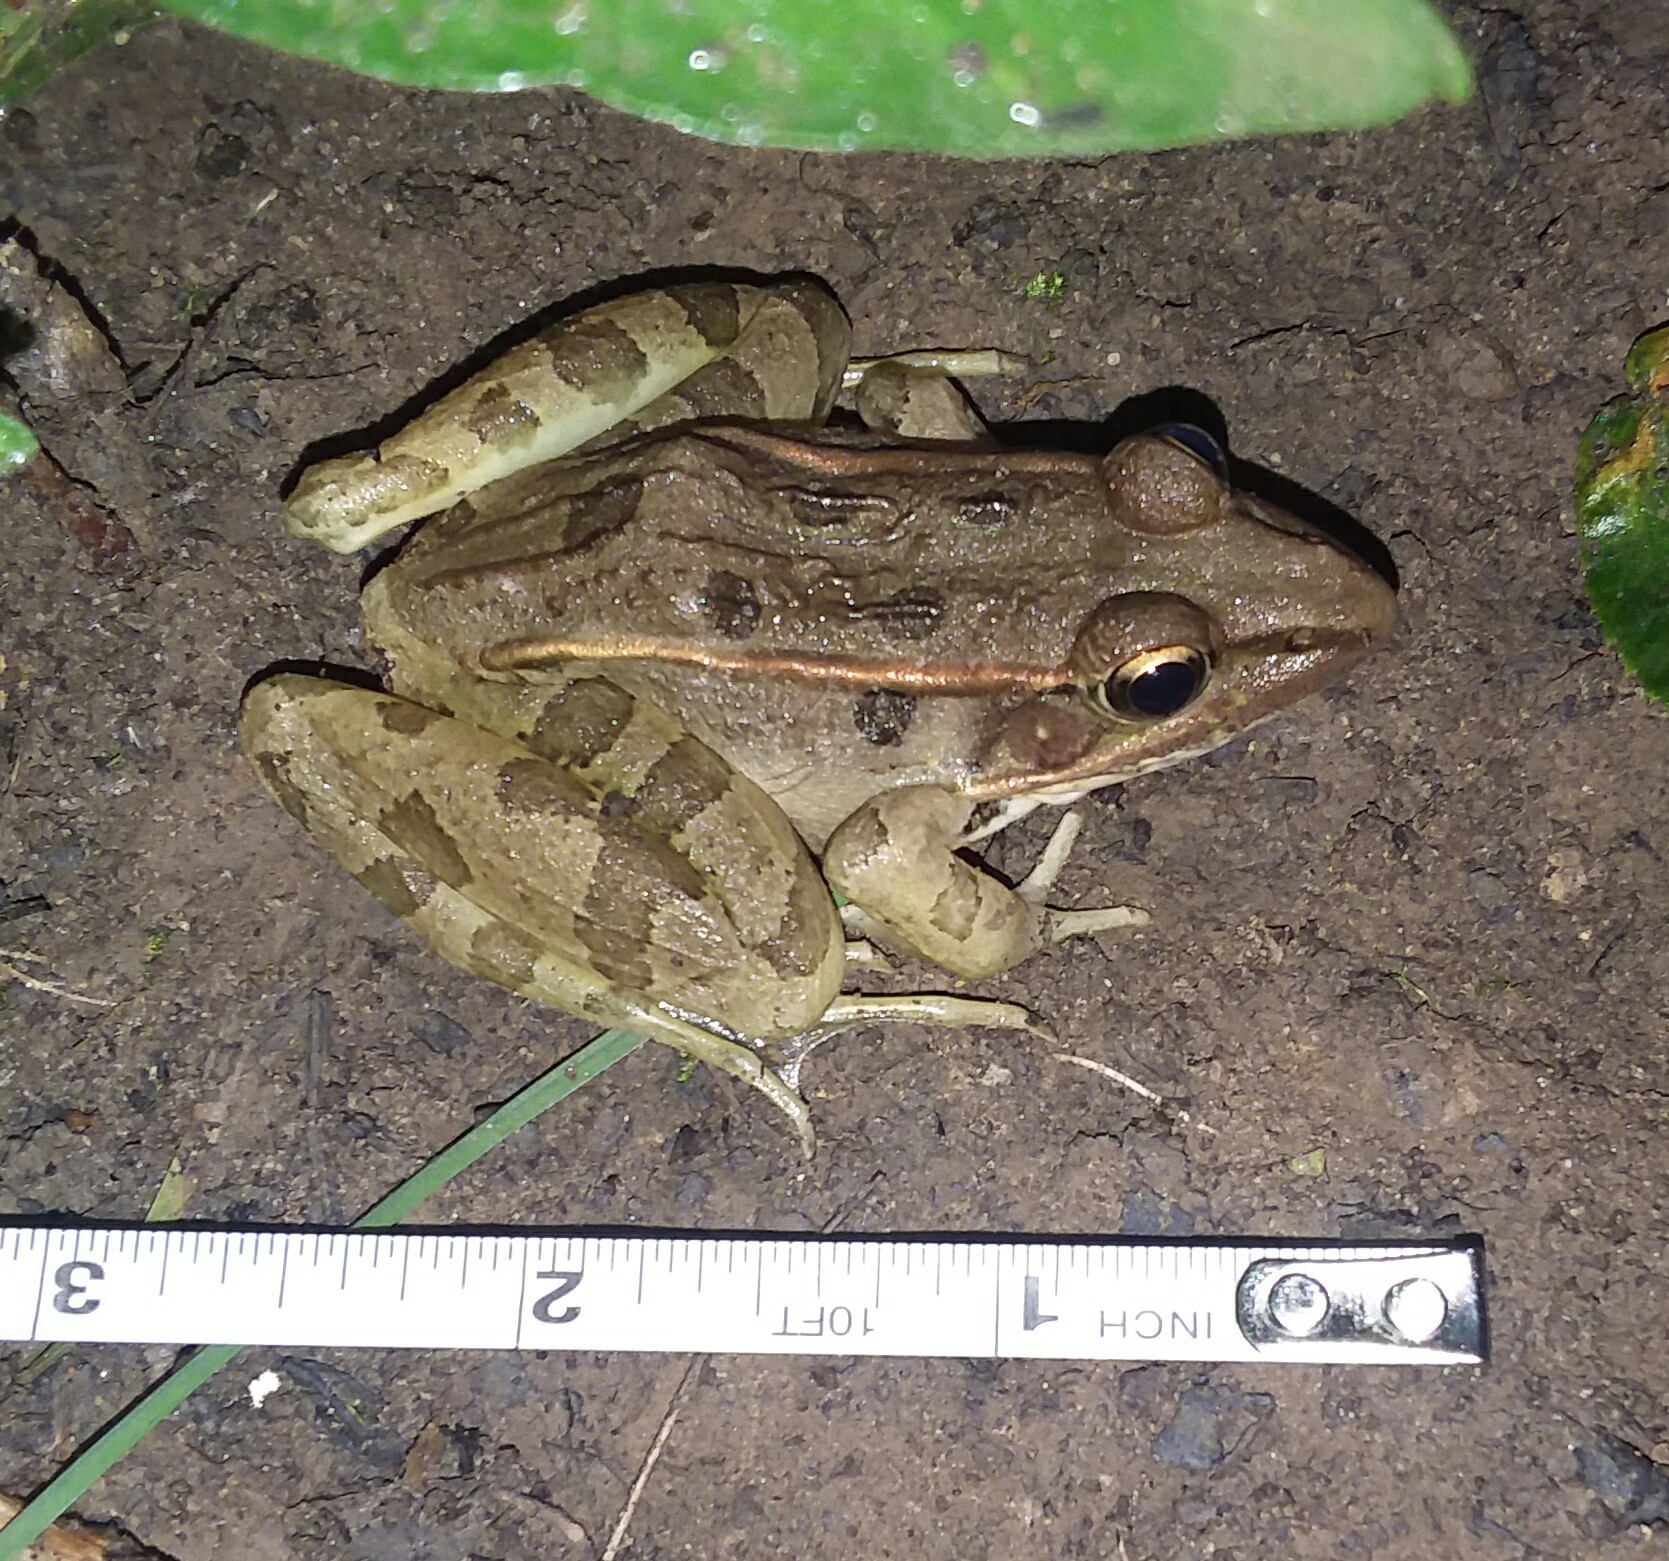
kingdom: Animalia
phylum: Chordata
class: Amphibia
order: Anura
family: Ranidae
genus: Lithobates
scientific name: Lithobates sphenocephalus
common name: Southern leopard frog
